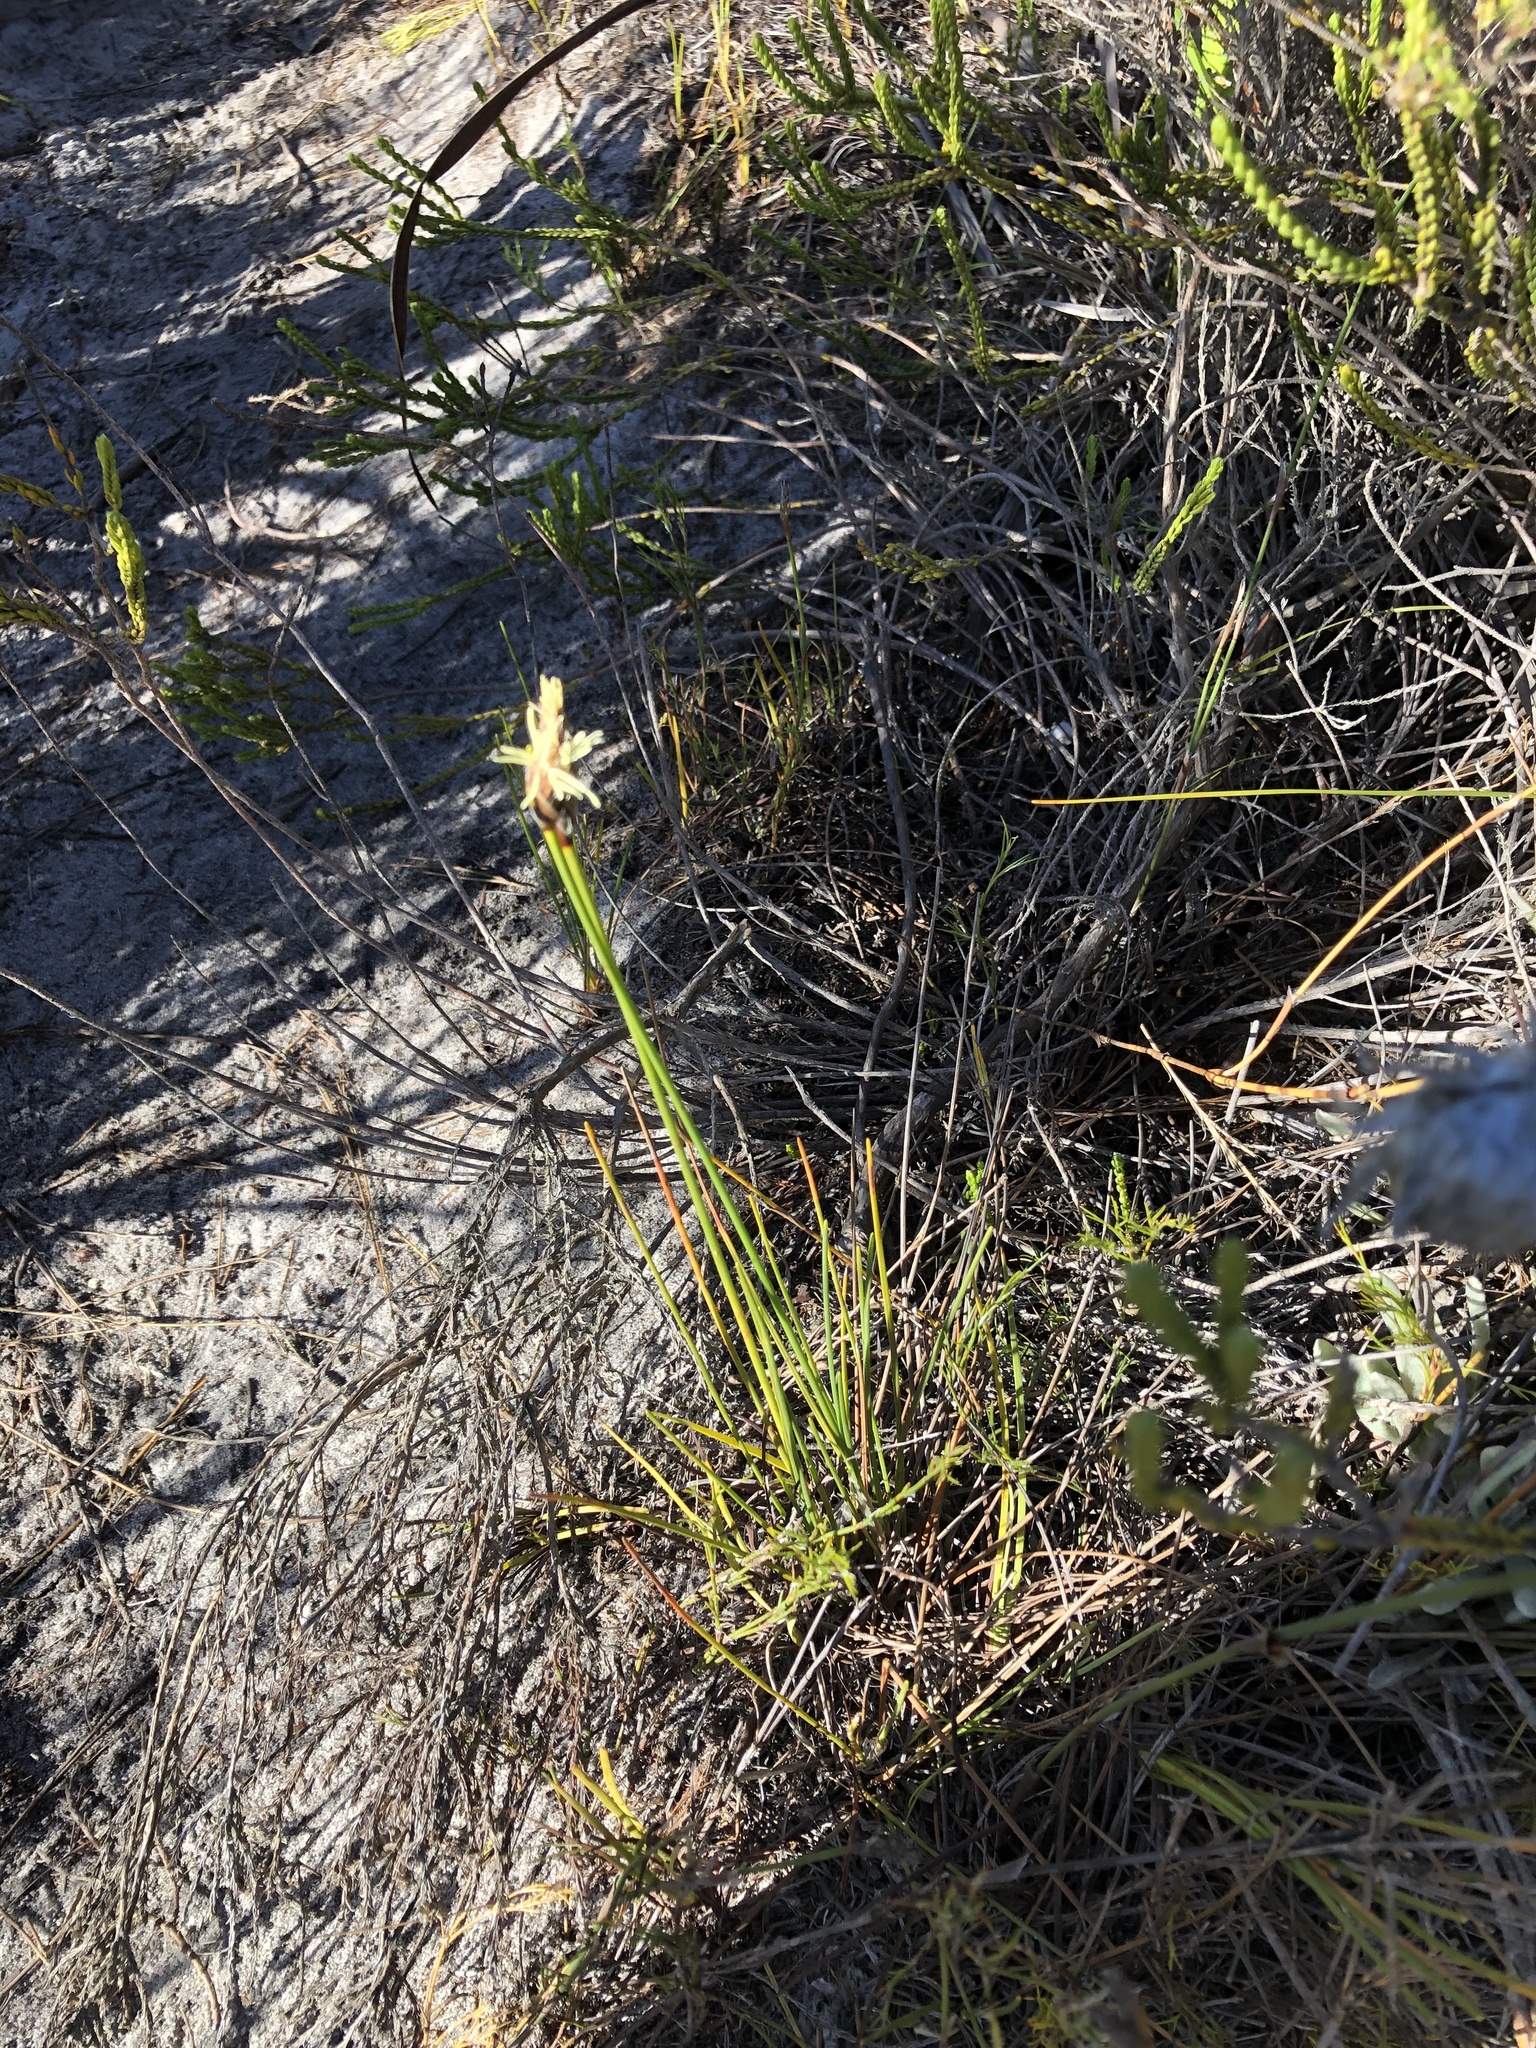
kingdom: Plantae
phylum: Tracheophyta
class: Liliopsida
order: Poales
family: Cyperaceae
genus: Ficinia
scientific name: Ficinia deusta
